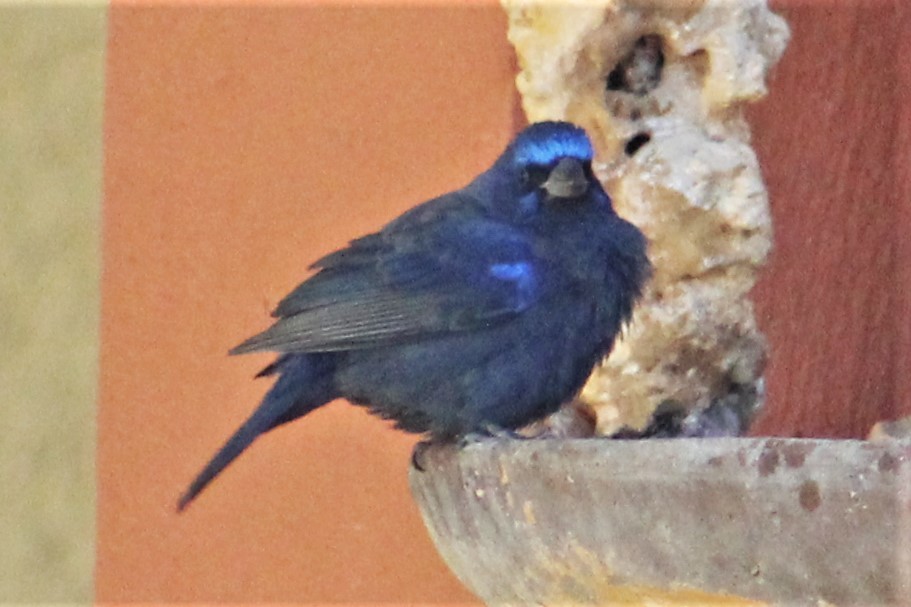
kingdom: Animalia
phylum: Chordata
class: Aves
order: Passeriformes
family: Cardinalidae
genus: Cyanocompsa
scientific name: Cyanocompsa parellina
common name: Blue bunting
